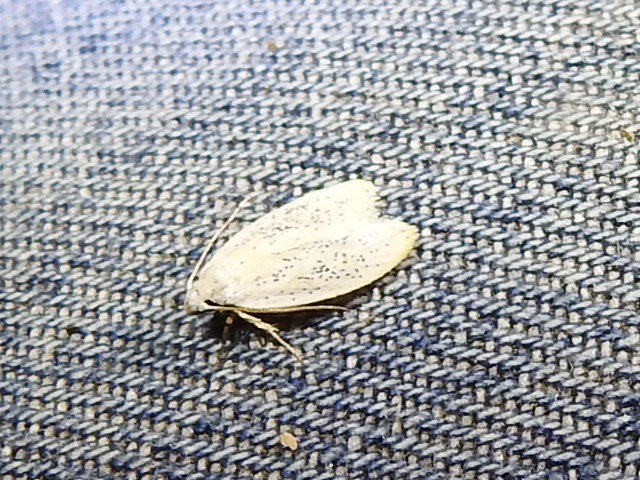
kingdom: Animalia
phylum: Arthropoda
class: Insecta
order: Lepidoptera
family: Peleopodidae
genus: Durrantia
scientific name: Durrantia piperatella
